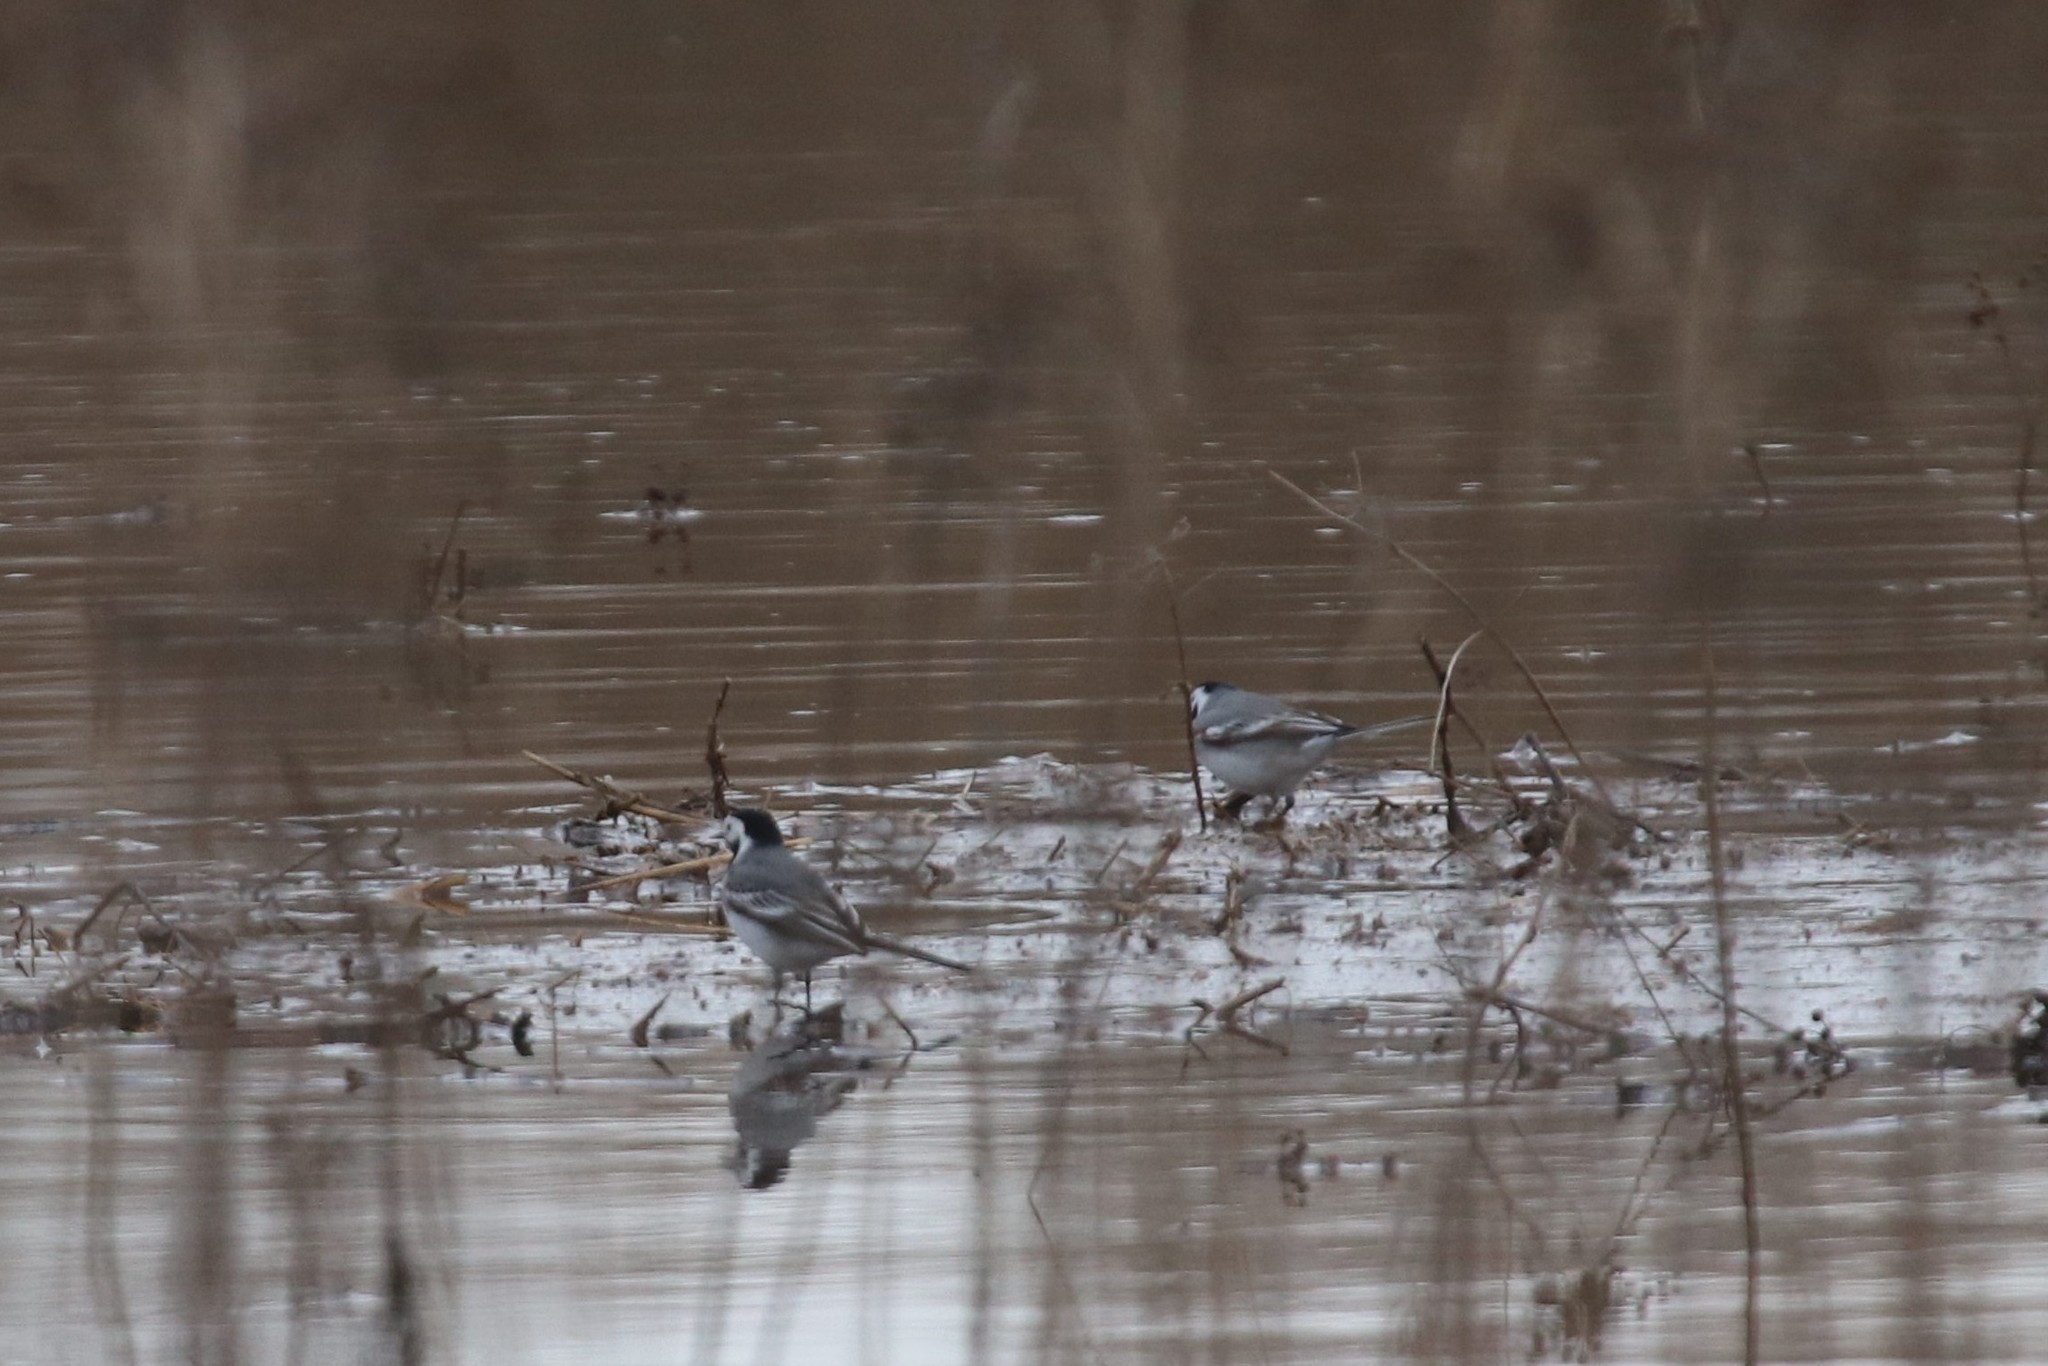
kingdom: Animalia
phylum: Chordata
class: Aves
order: Passeriformes
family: Motacillidae
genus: Motacilla
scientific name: Motacilla alba
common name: White wagtail
